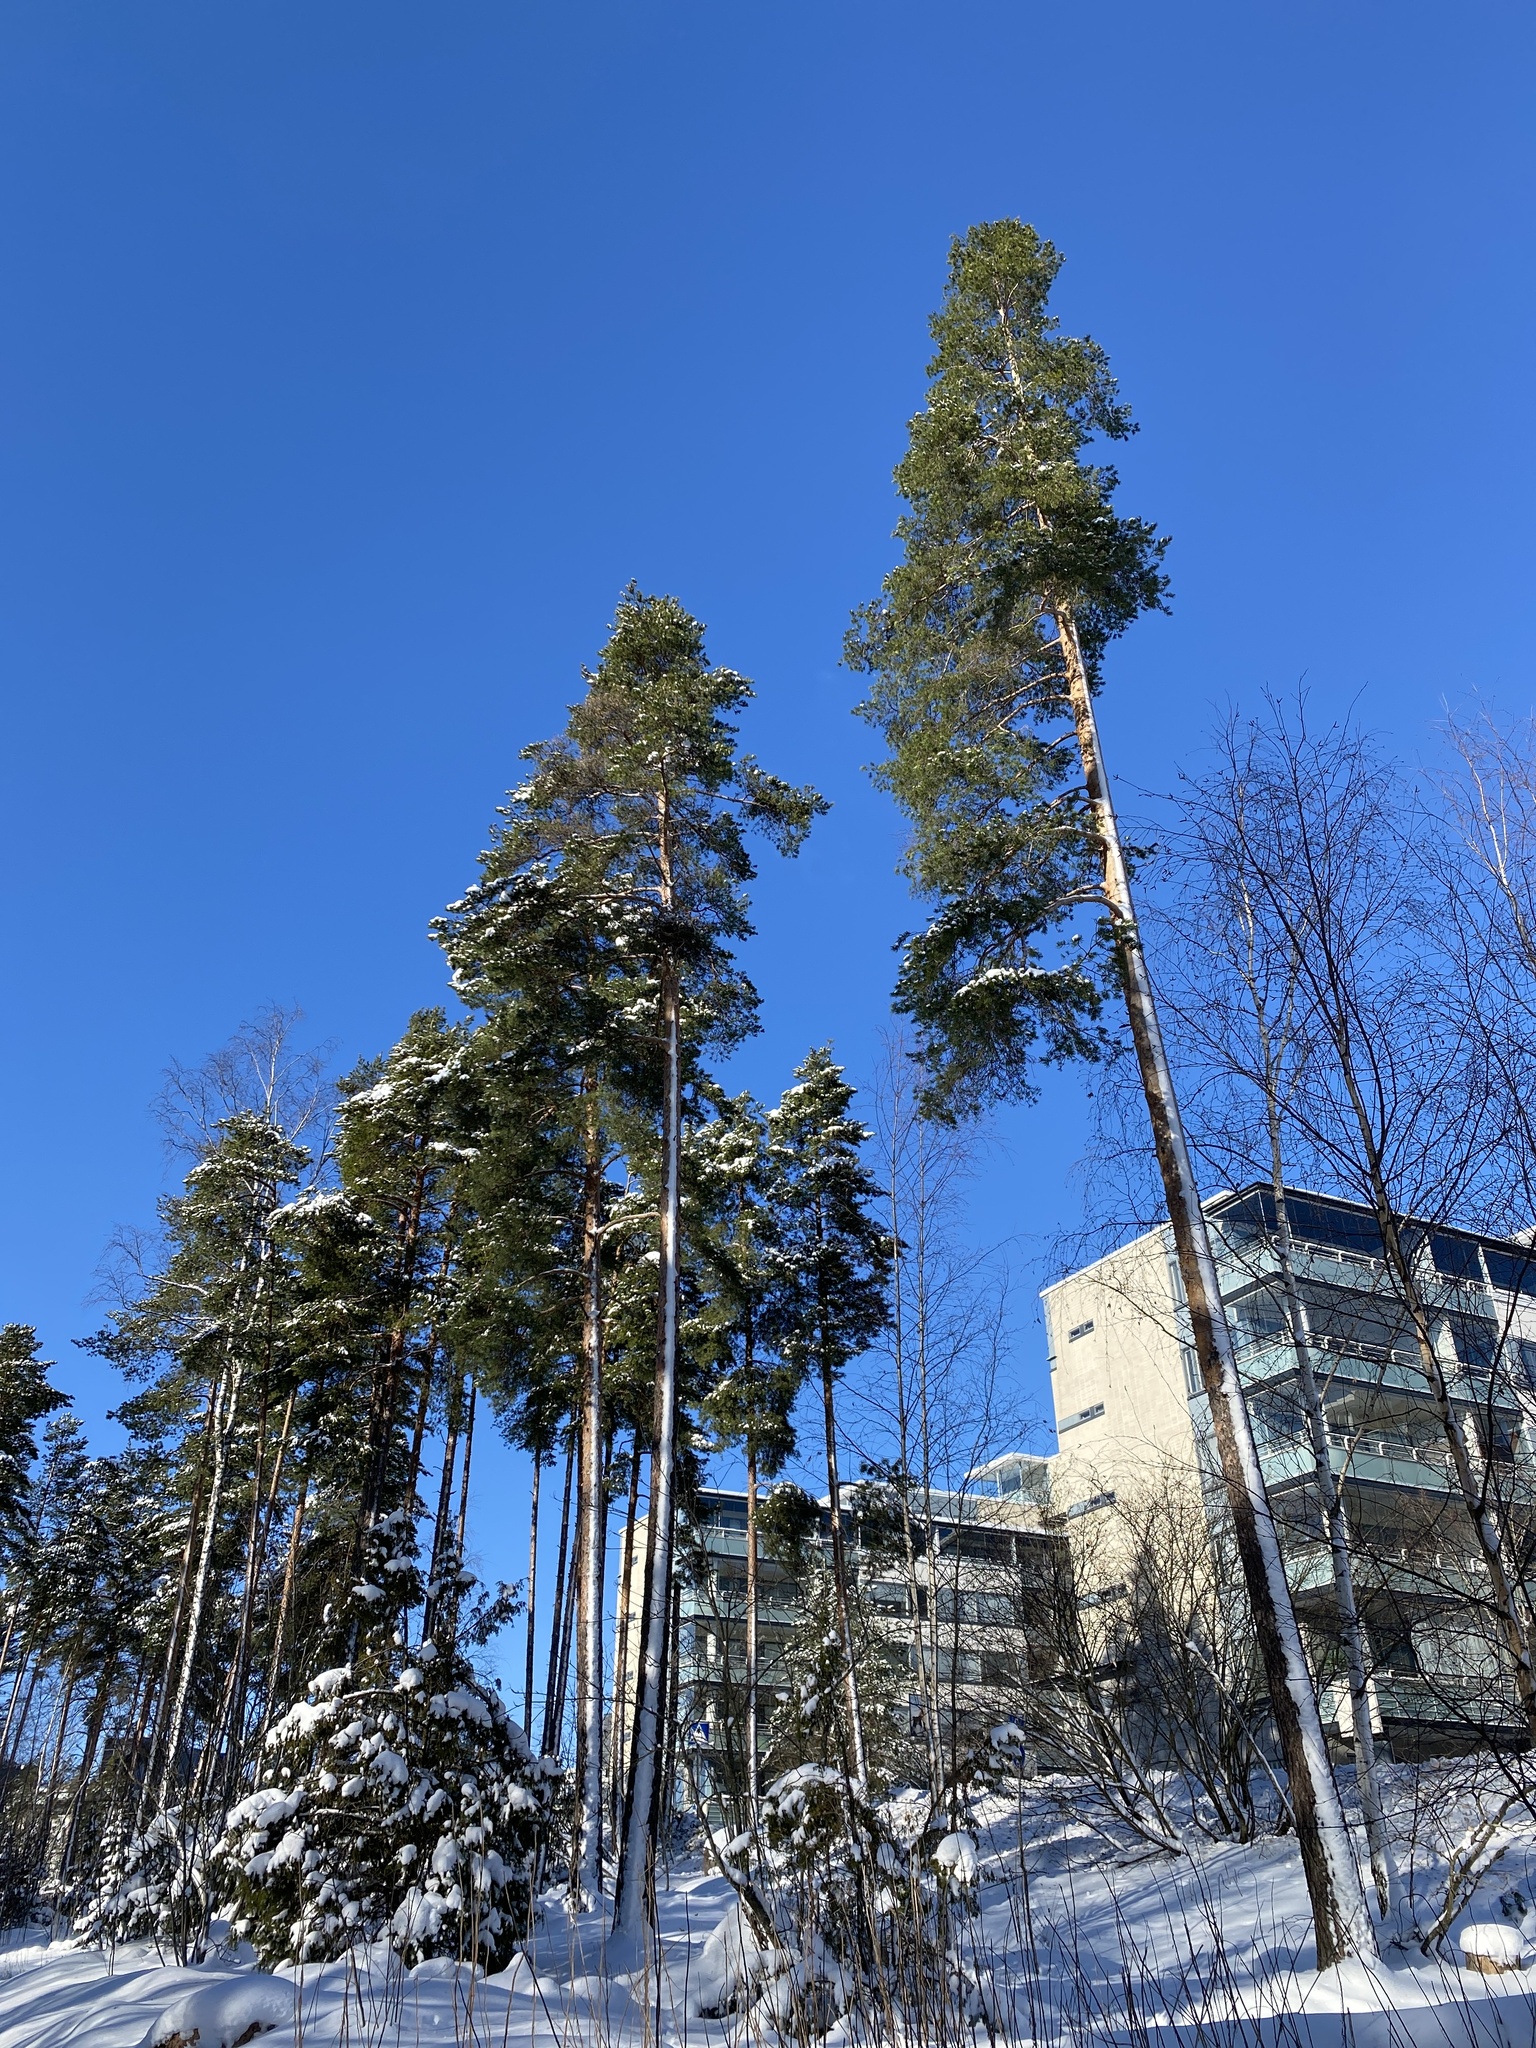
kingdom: Plantae
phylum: Tracheophyta
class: Pinopsida
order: Pinales
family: Pinaceae
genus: Pinus
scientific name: Pinus sylvestris
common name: Scots pine
